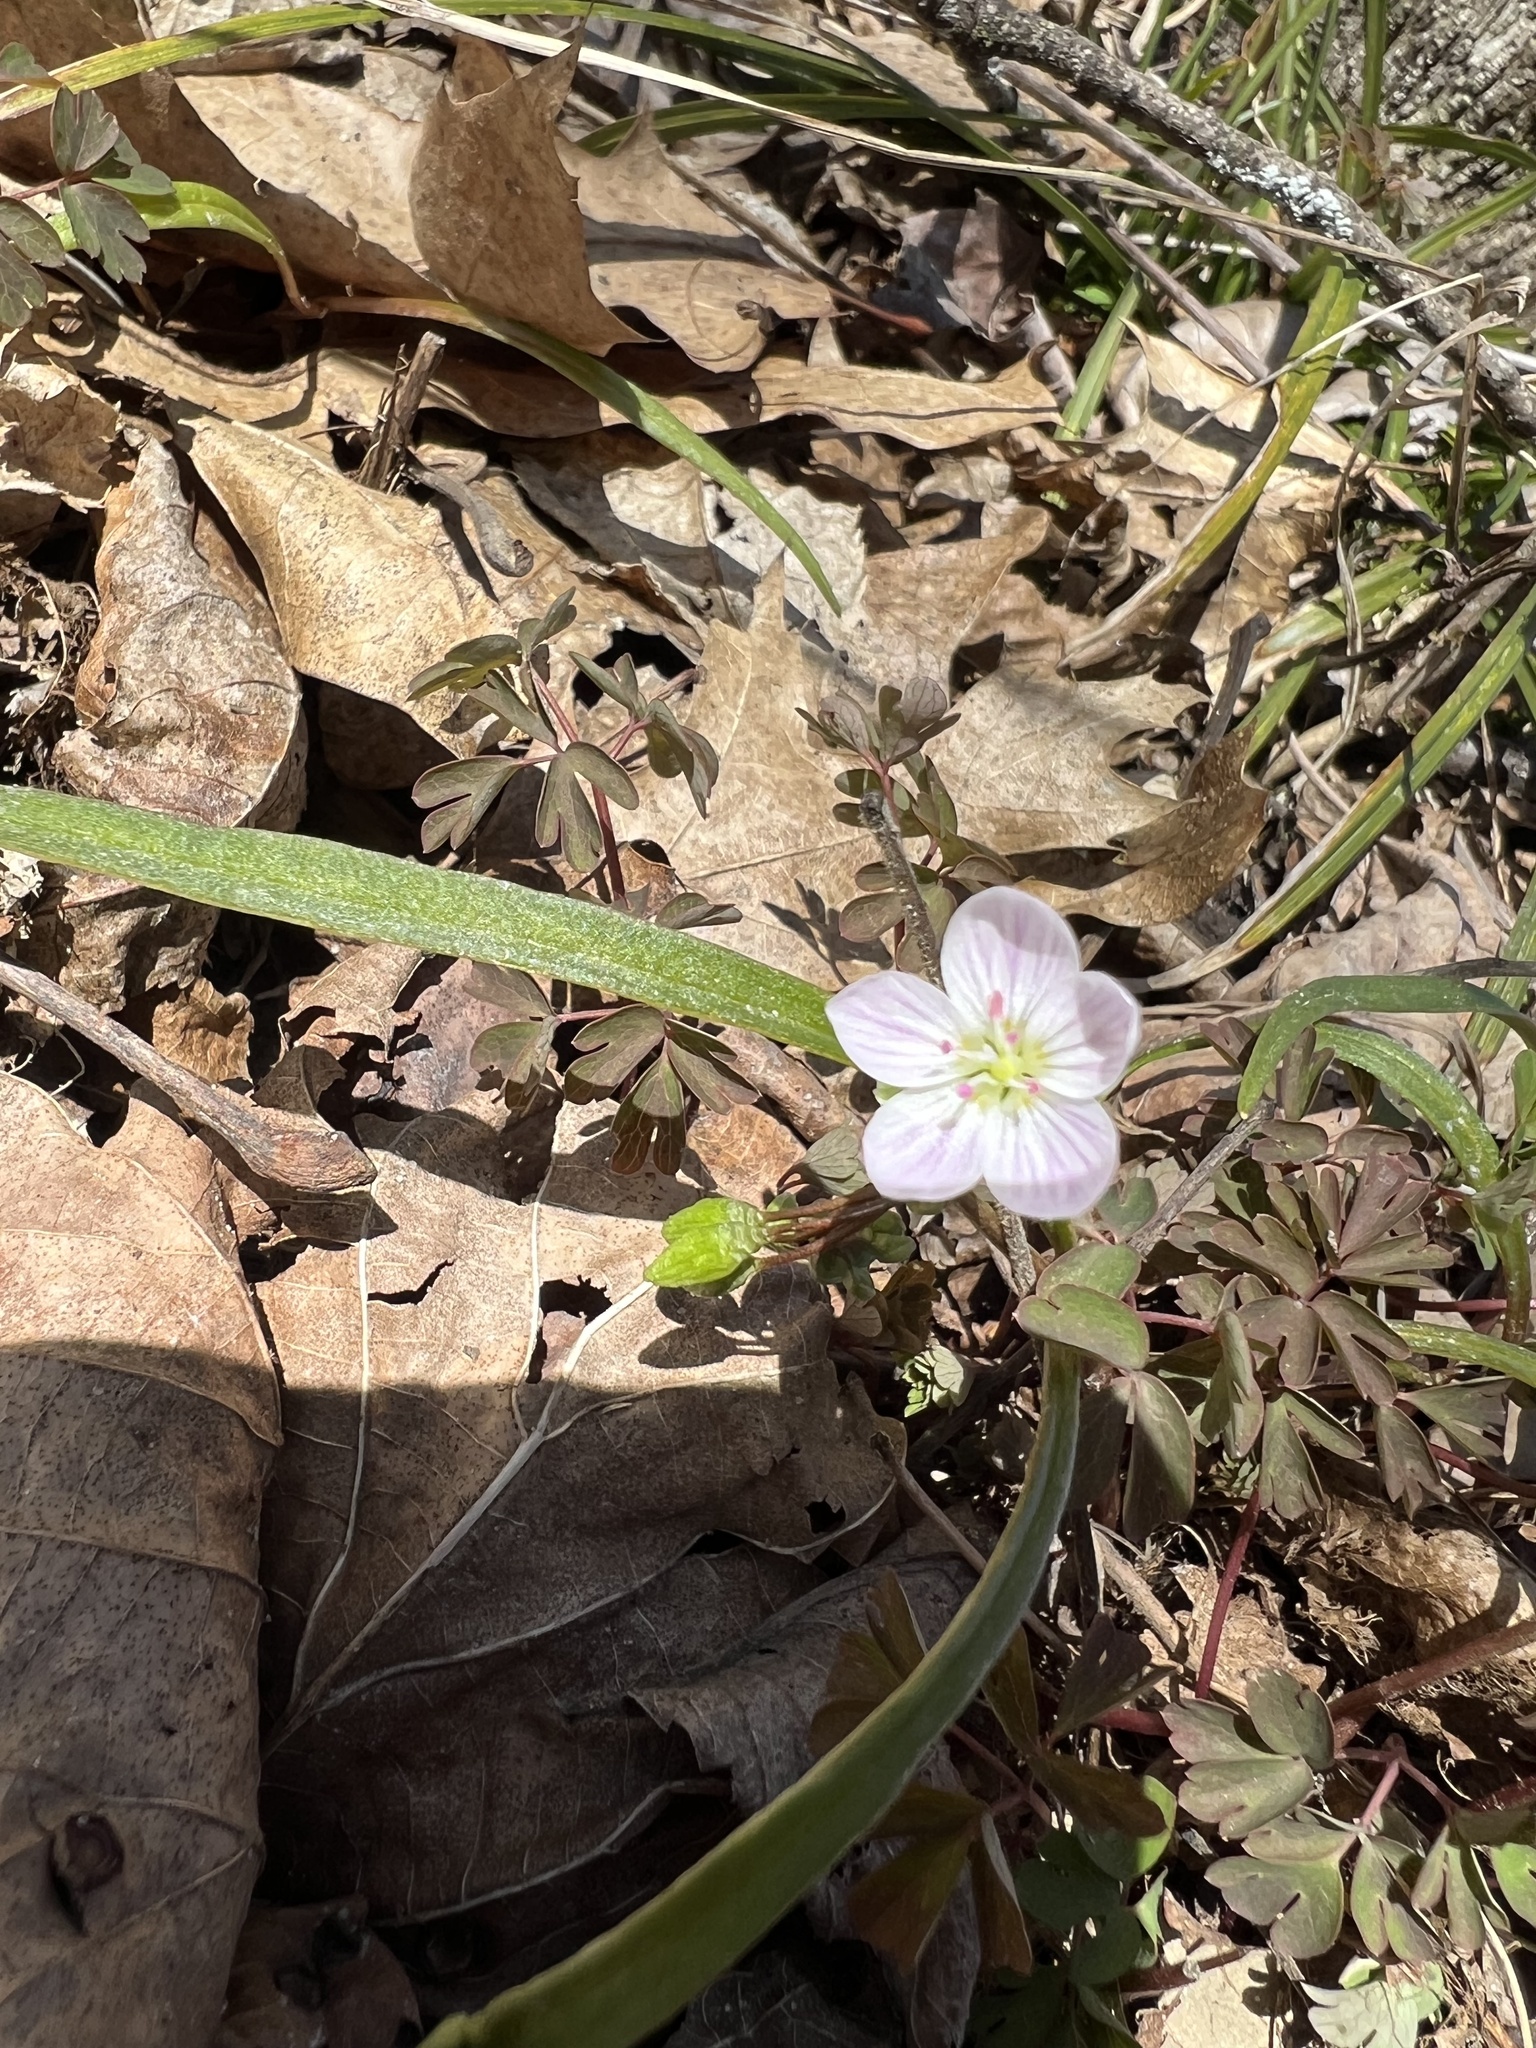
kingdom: Plantae
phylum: Tracheophyta
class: Magnoliopsida
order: Caryophyllales
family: Montiaceae
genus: Claytonia
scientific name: Claytonia virginica
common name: Virginia springbeauty
